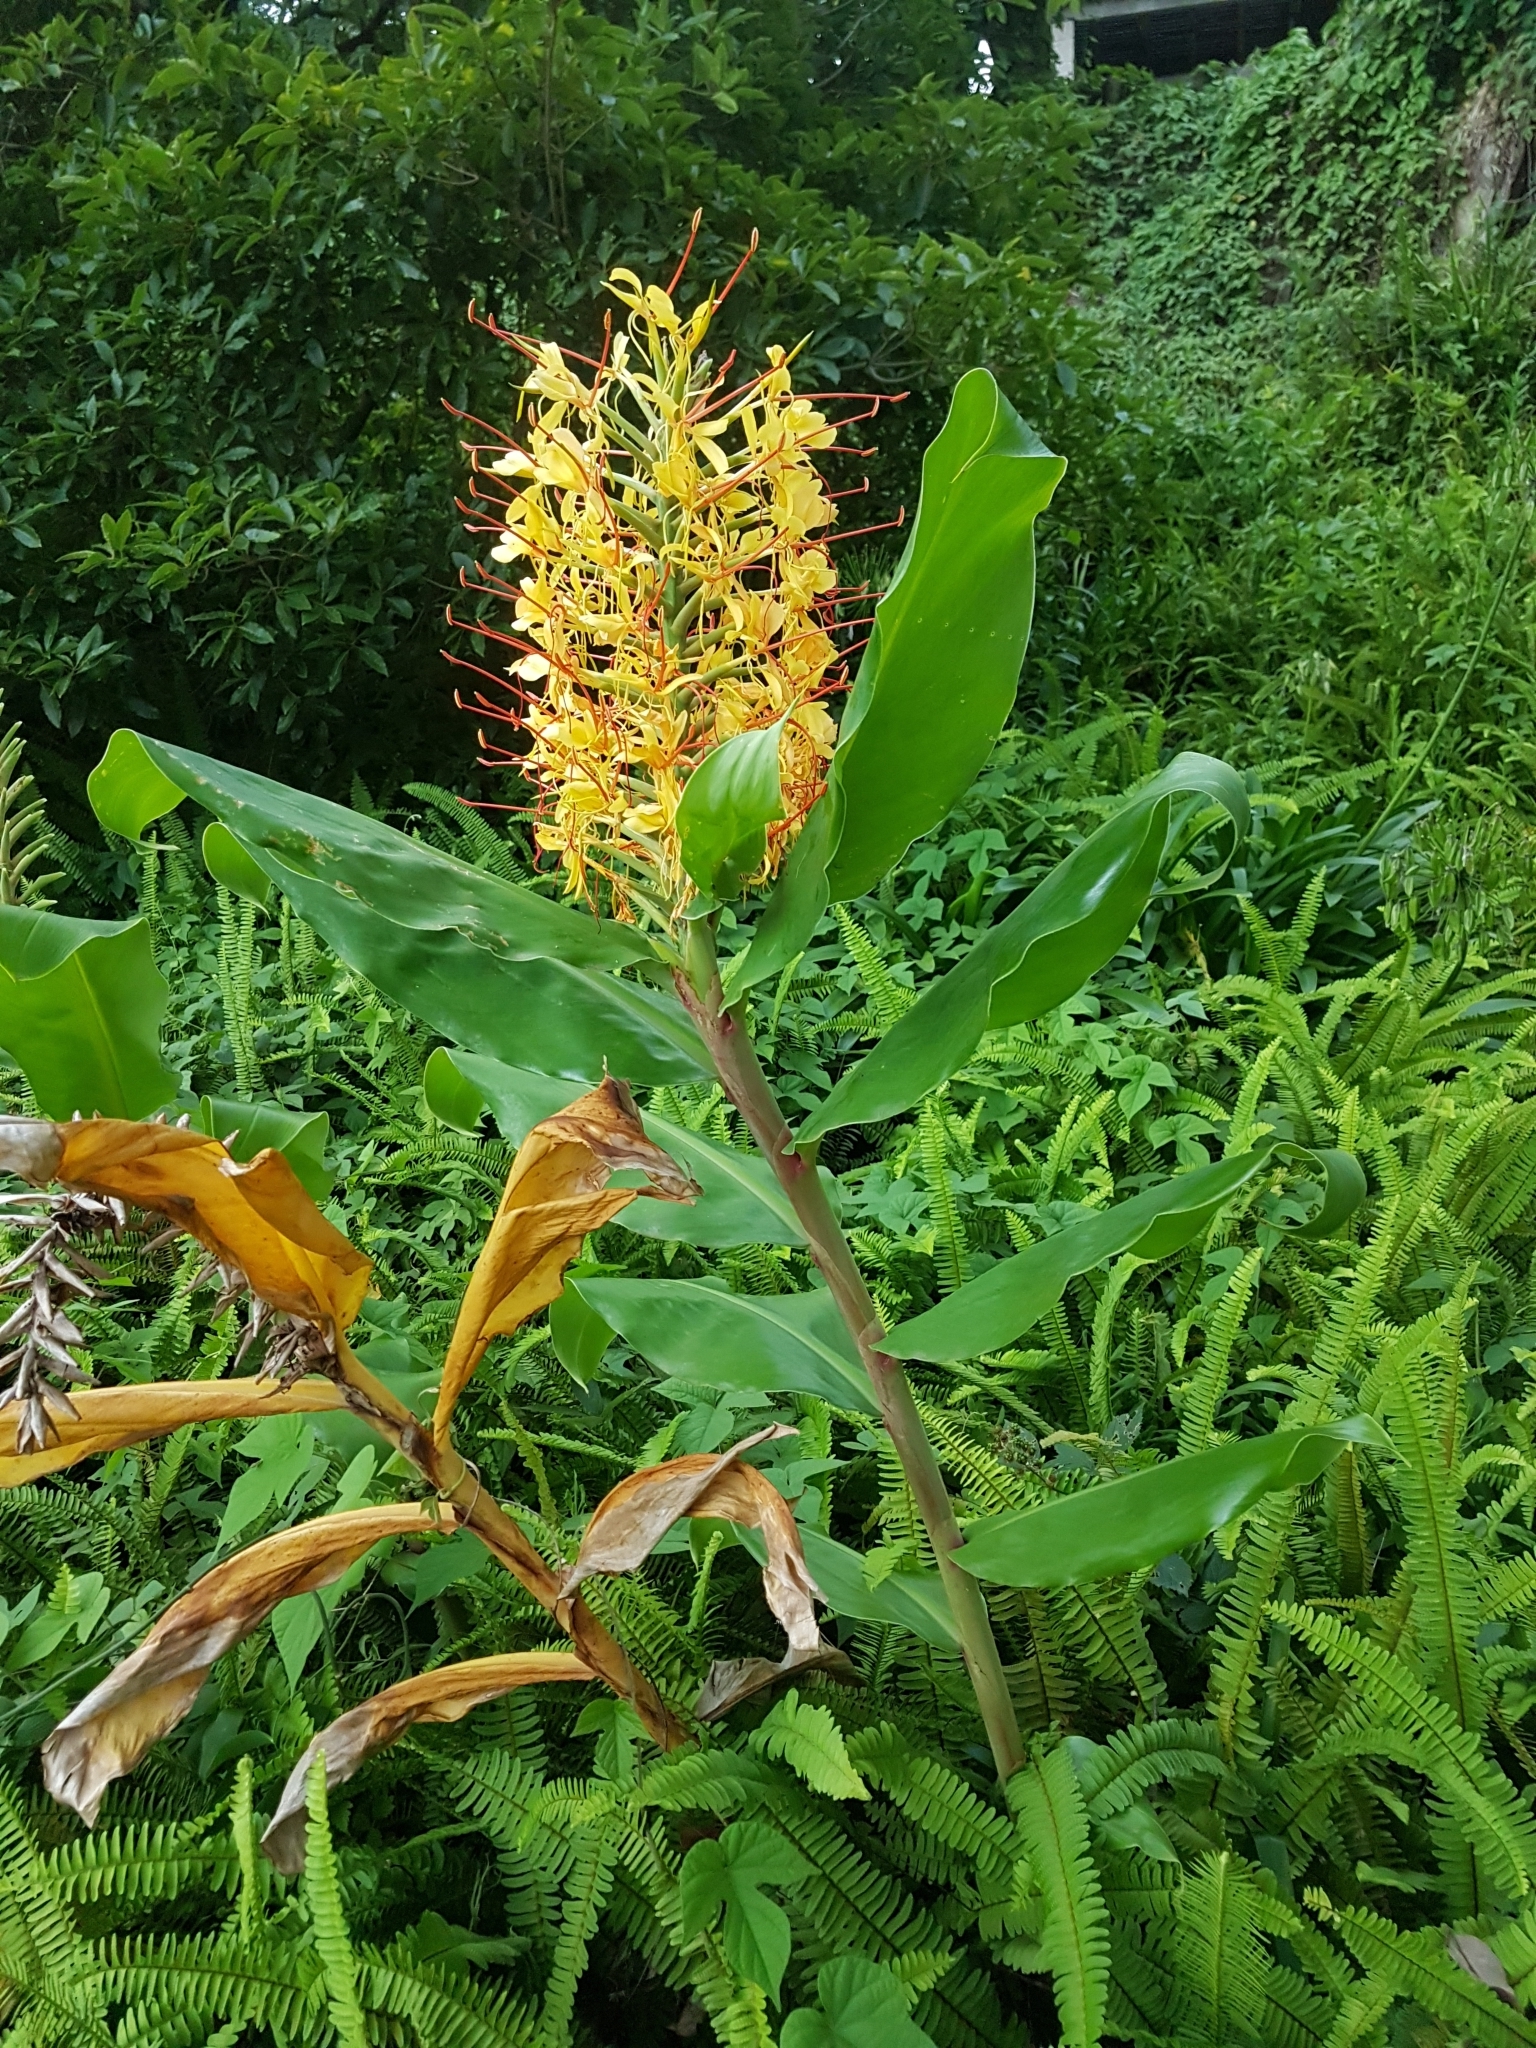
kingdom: Plantae
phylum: Tracheophyta
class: Liliopsida
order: Zingiberales
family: Zingiberaceae
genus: Hedychium
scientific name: Hedychium gardnerianum
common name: Himalayan ginger
